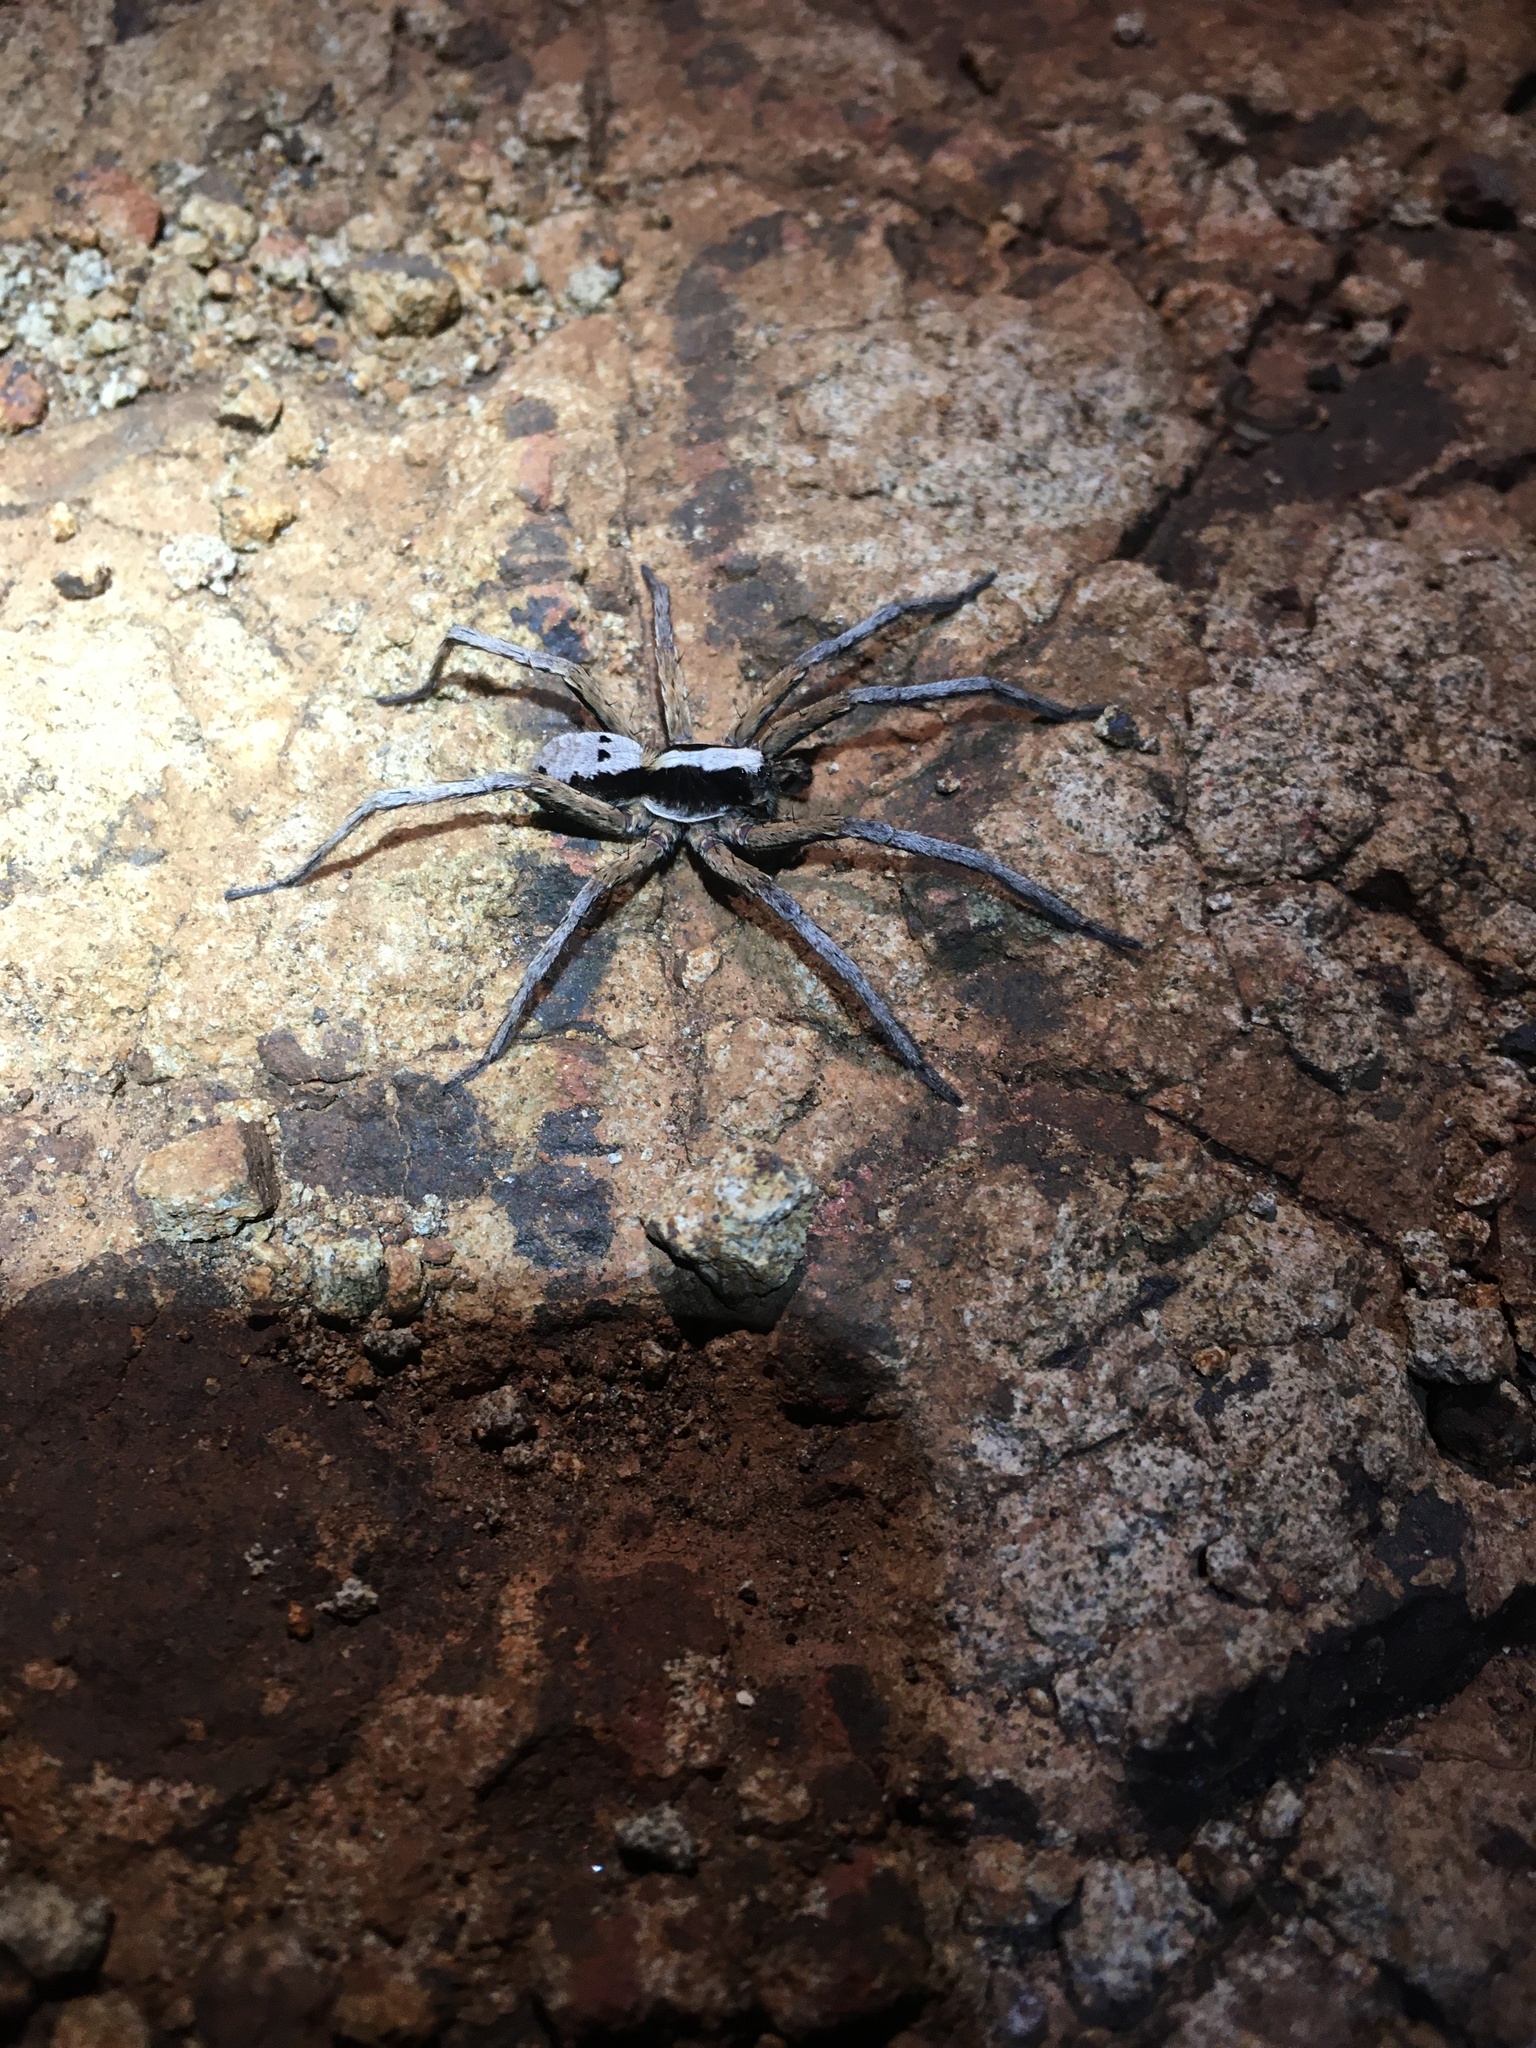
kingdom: Animalia
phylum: Arthropoda
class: Arachnida
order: Araneae
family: Lycosidae
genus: Hogna
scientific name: Hogna gumia
